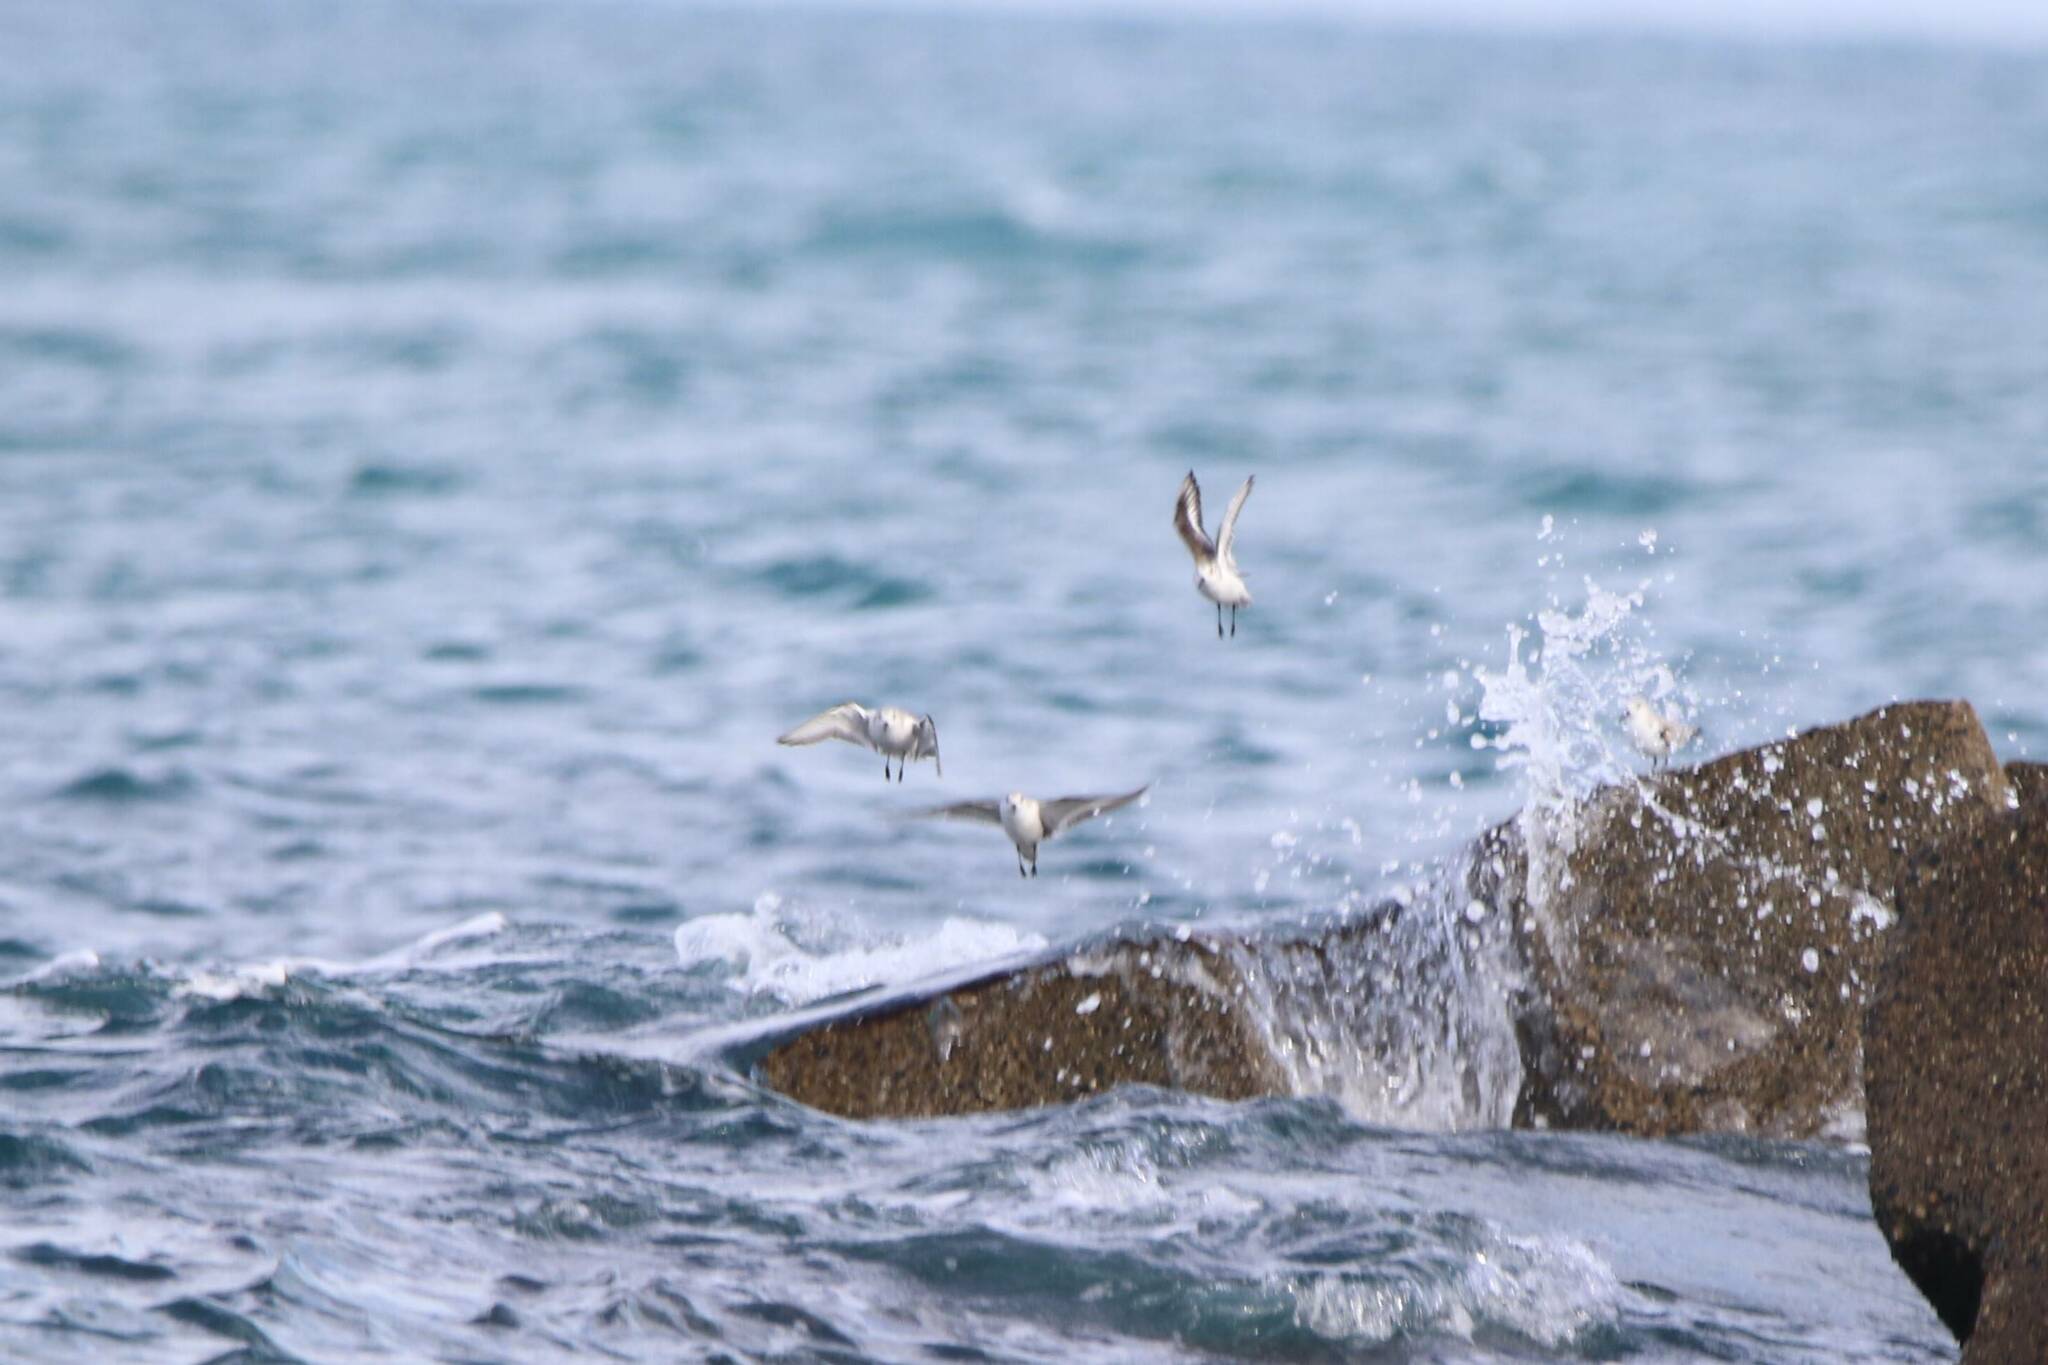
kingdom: Animalia
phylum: Chordata
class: Aves
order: Charadriiformes
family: Scolopacidae
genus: Calidris
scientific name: Calidris alba
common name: Sanderling
